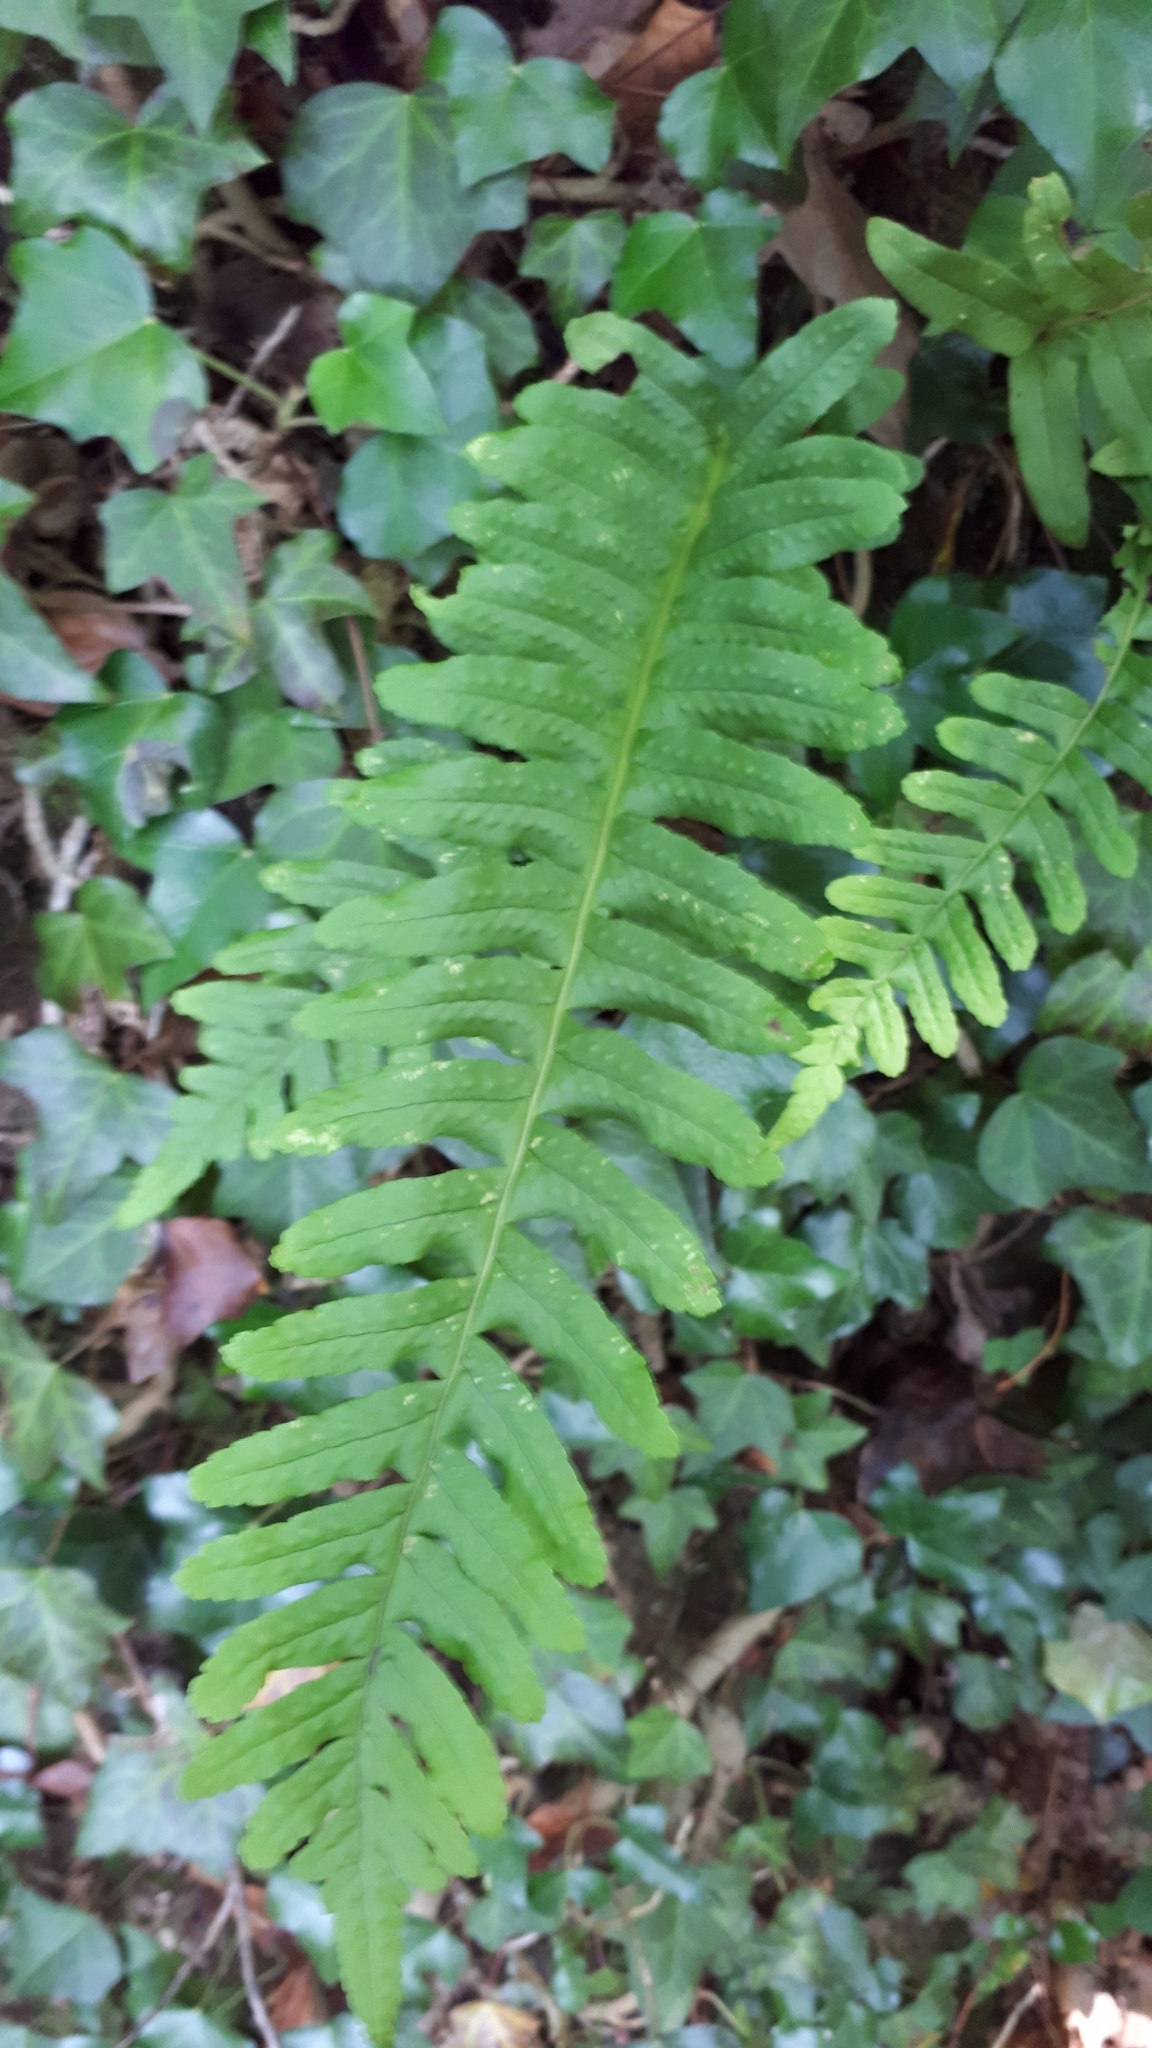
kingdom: Plantae
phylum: Tracheophyta
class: Polypodiopsida
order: Polypodiales
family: Polypodiaceae
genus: Polypodium
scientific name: Polypodium vulgare
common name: Common polypody
